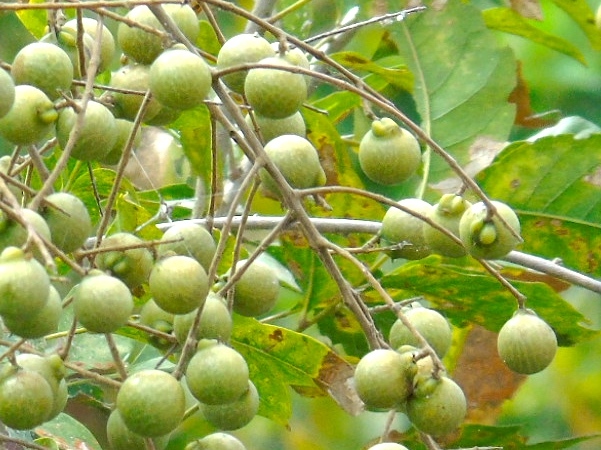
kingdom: Plantae
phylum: Tracheophyta
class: Magnoliopsida
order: Sapindales
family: Sapindaceae
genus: Sapindus
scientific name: Sapindus drummondii
